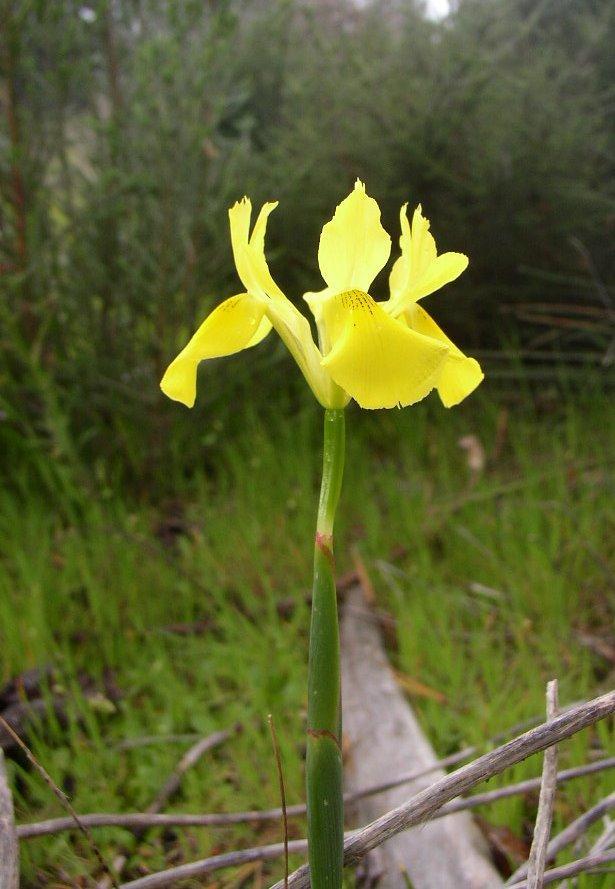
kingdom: Plantae
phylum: Tracheophyta
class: Liliopsida
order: Asparagales
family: Iridaceae
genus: Moraea
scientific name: Moraea neglecta
